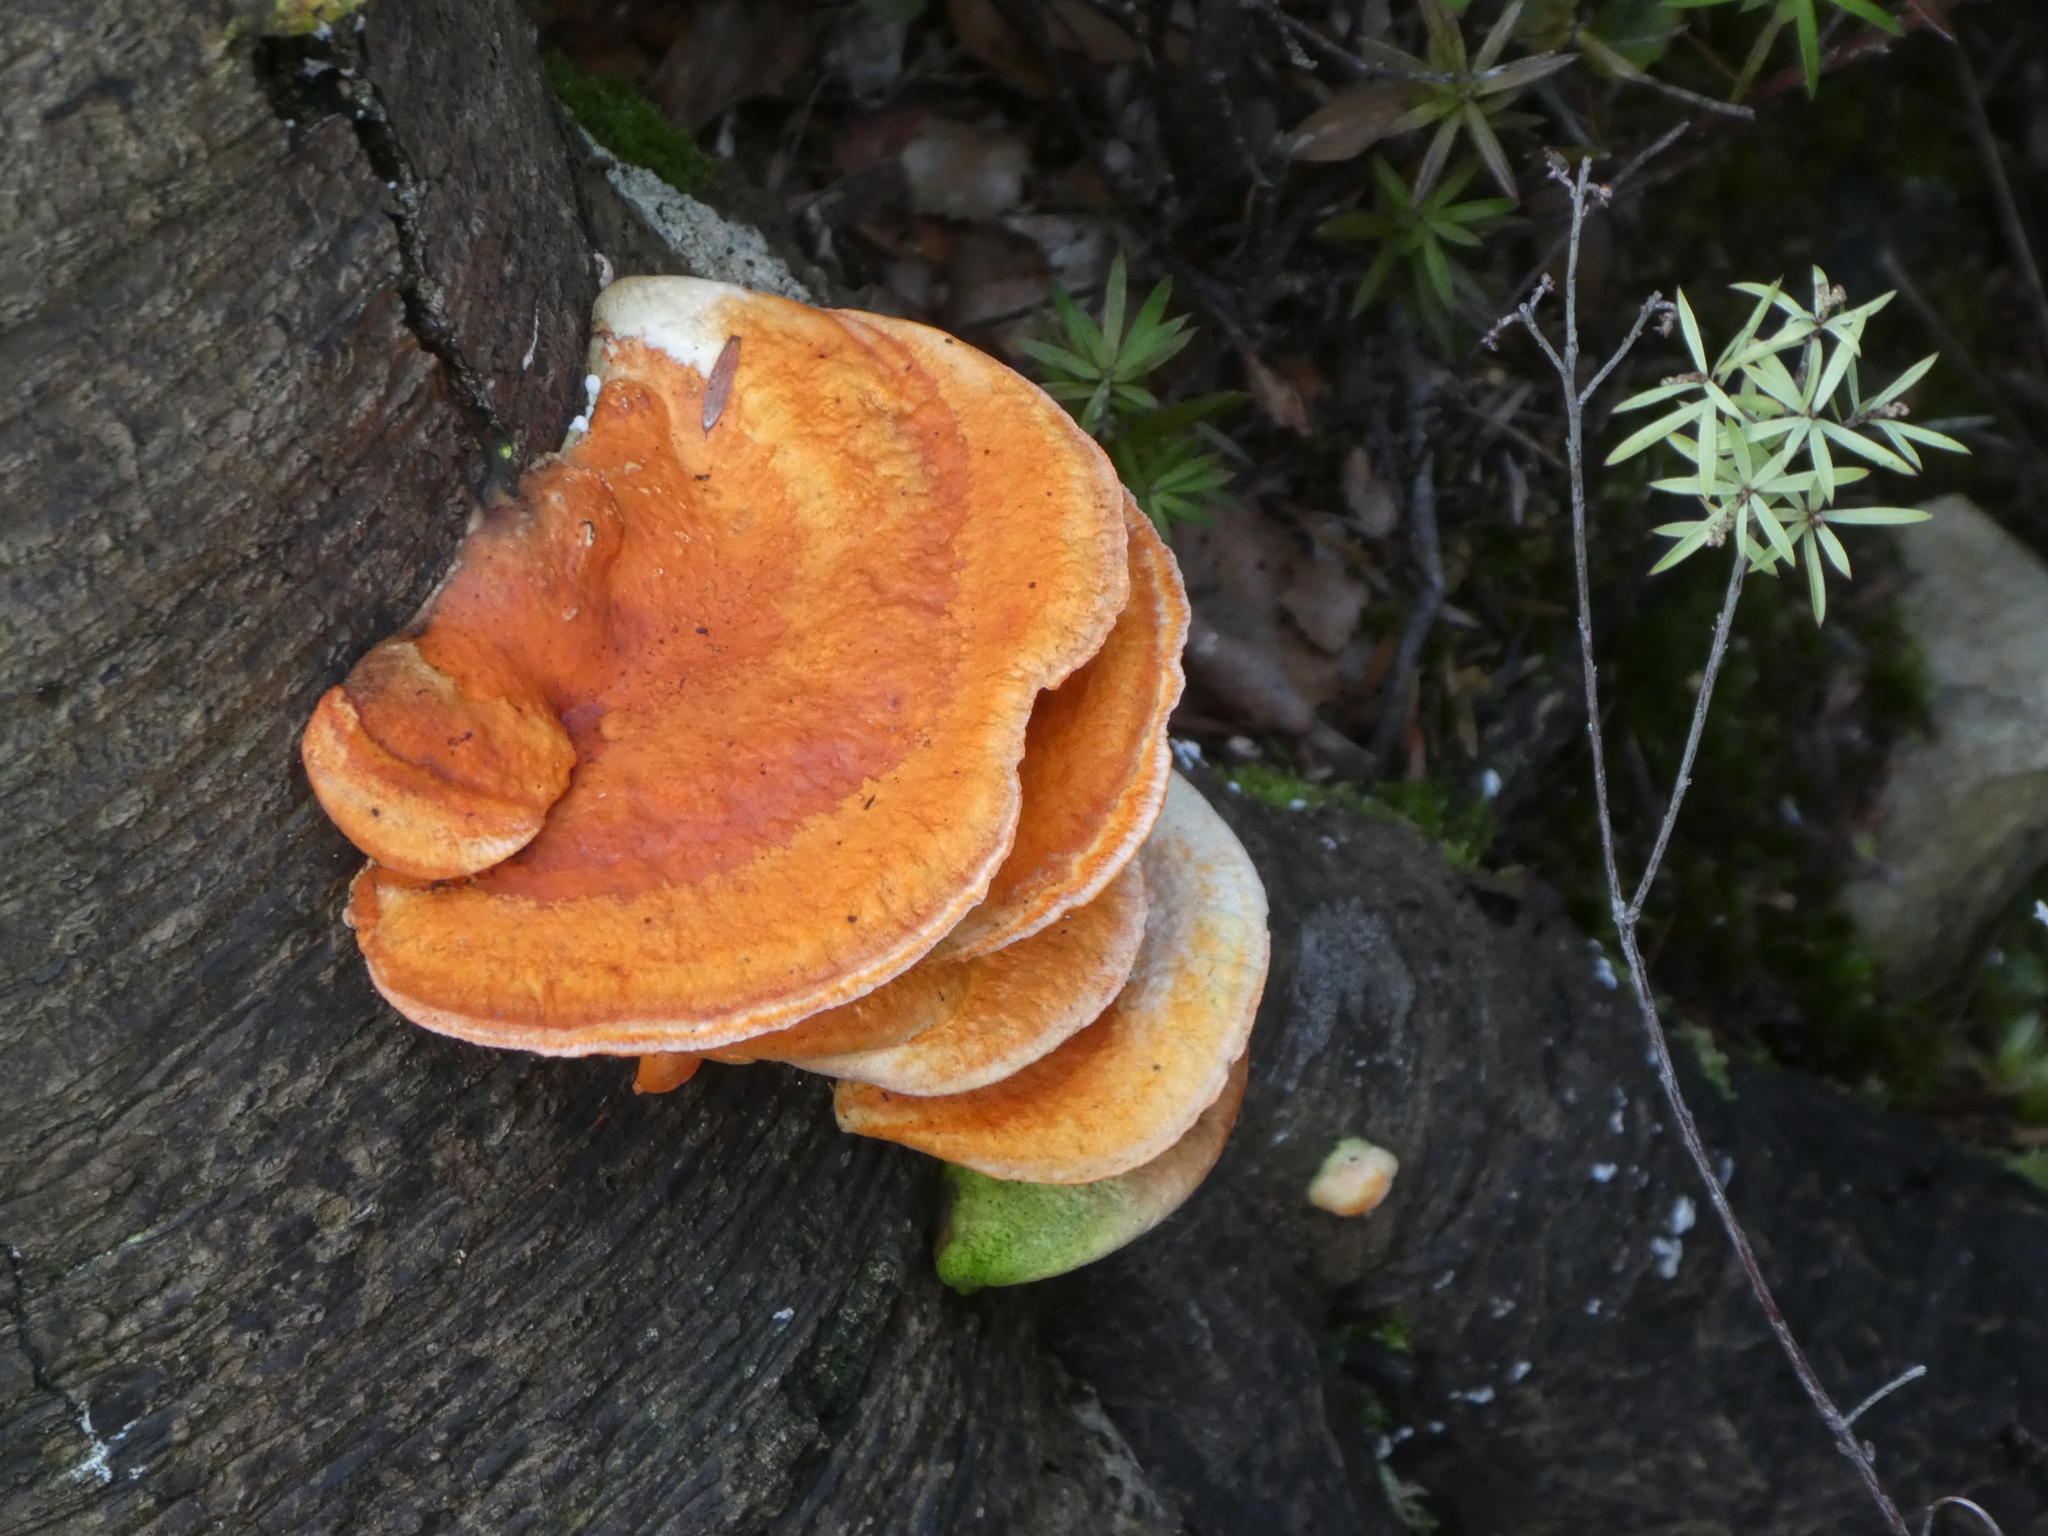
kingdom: Fungi
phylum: Basidiomycota
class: Agaricomycetes
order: Polyporales
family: Polyporaceae
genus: Trametes
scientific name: Trametes coccinea
